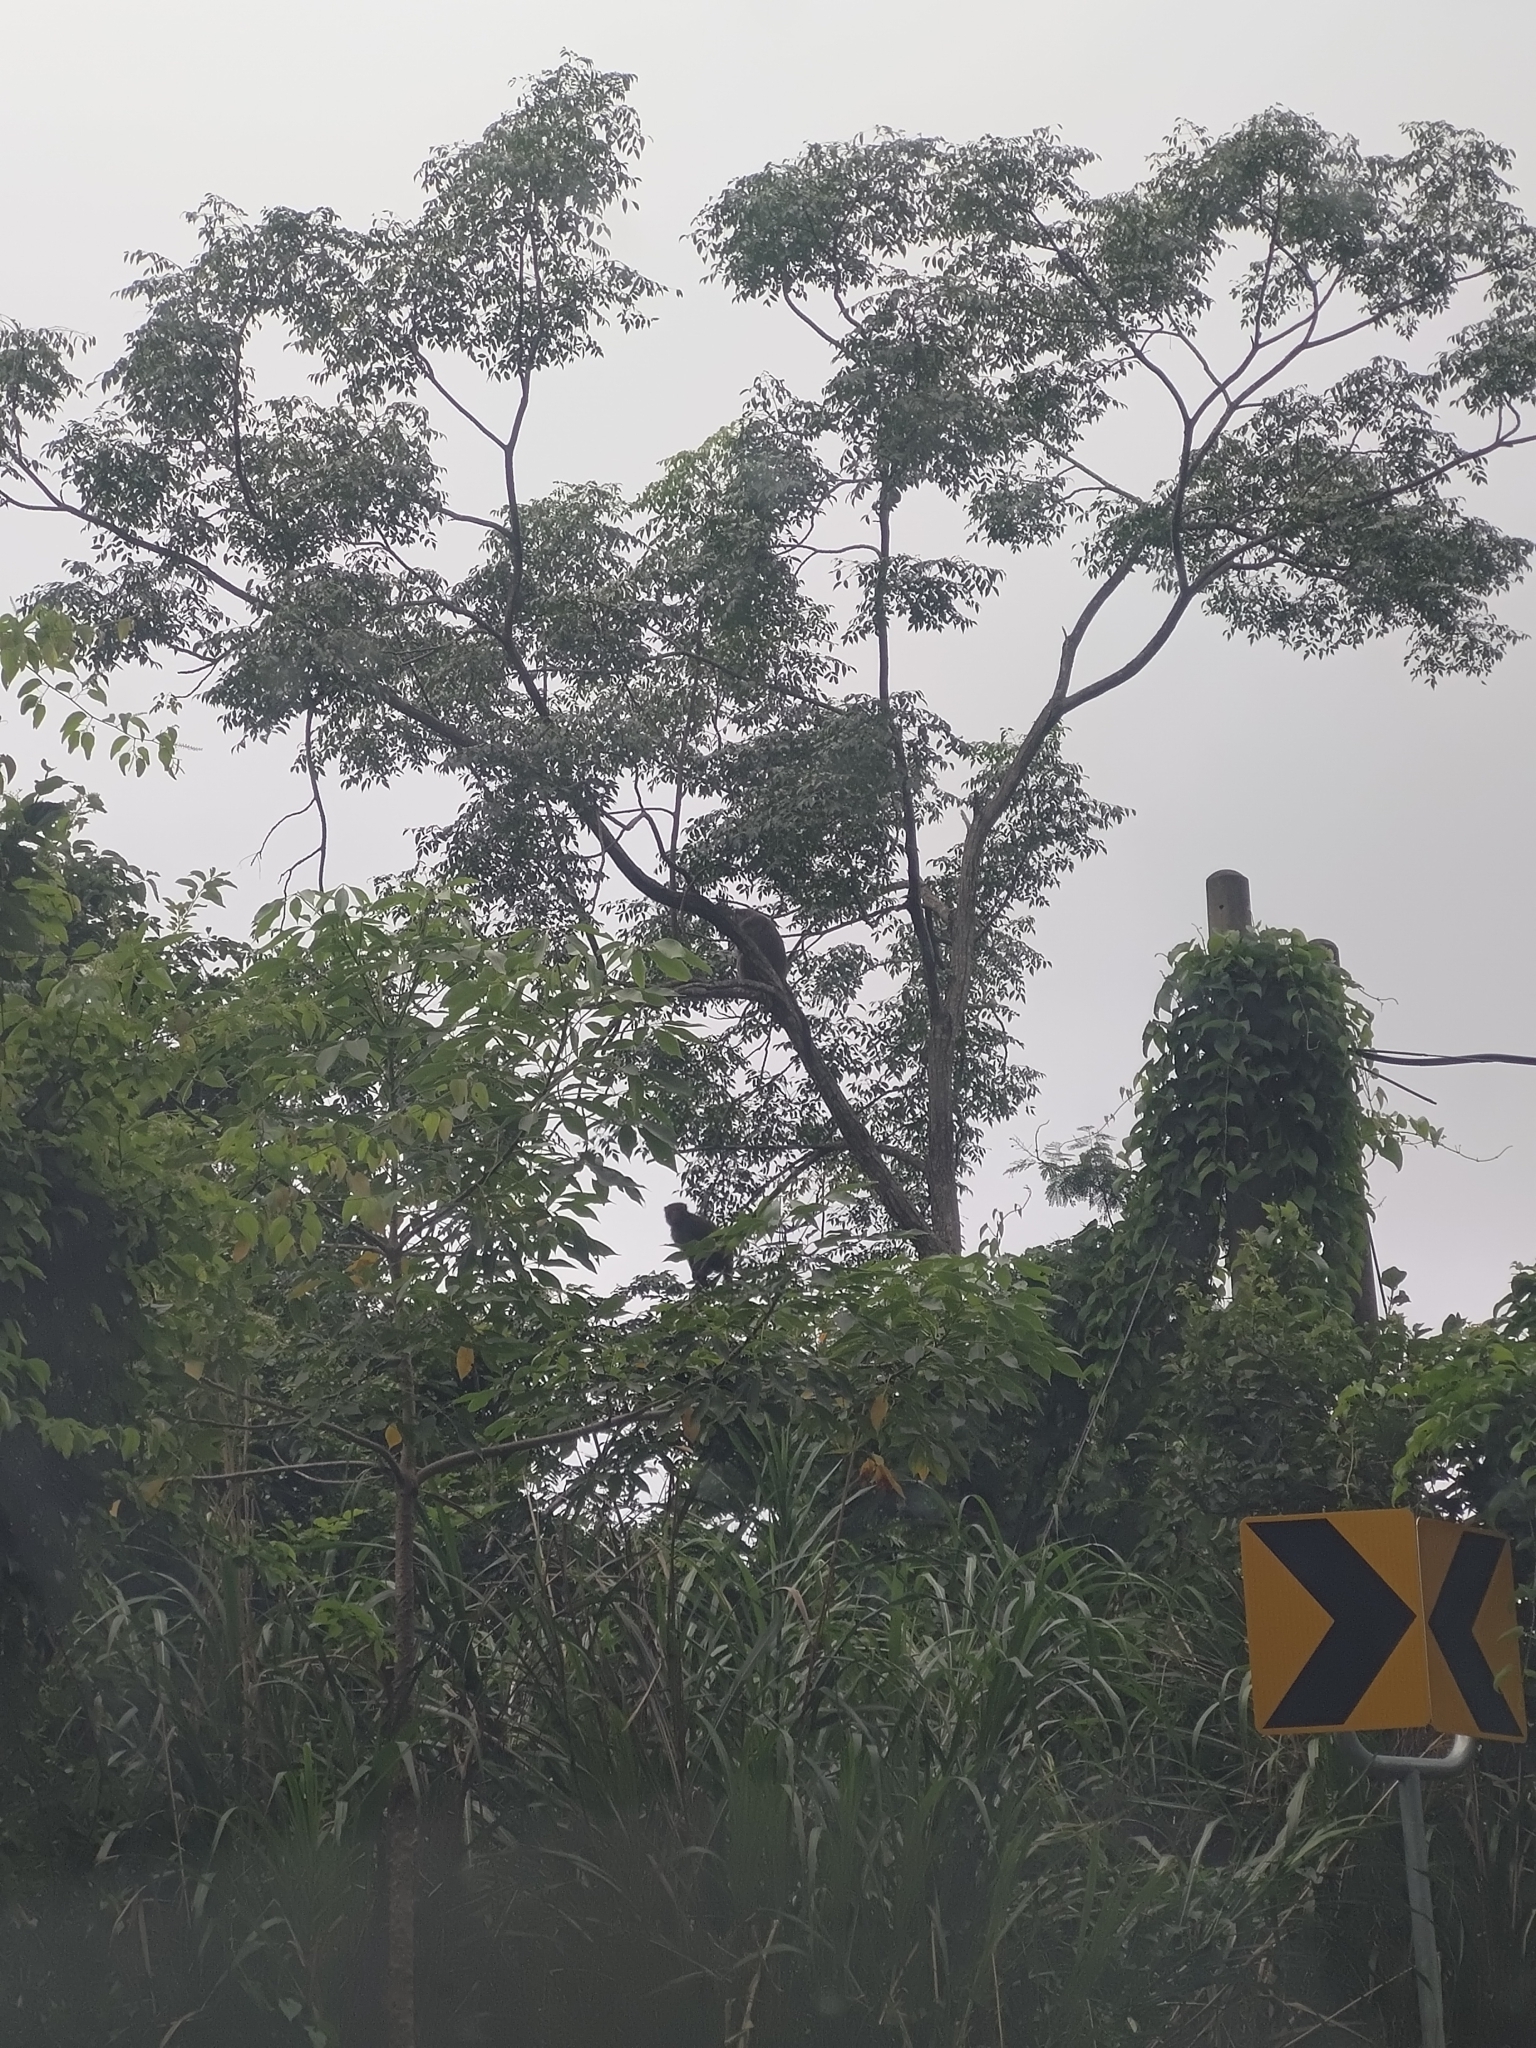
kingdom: Animalia
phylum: Chordata
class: Mammalia
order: Primates
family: Cercopithecidae
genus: Macaca
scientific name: Macaca cyclopis
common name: Formosan rock macaque
